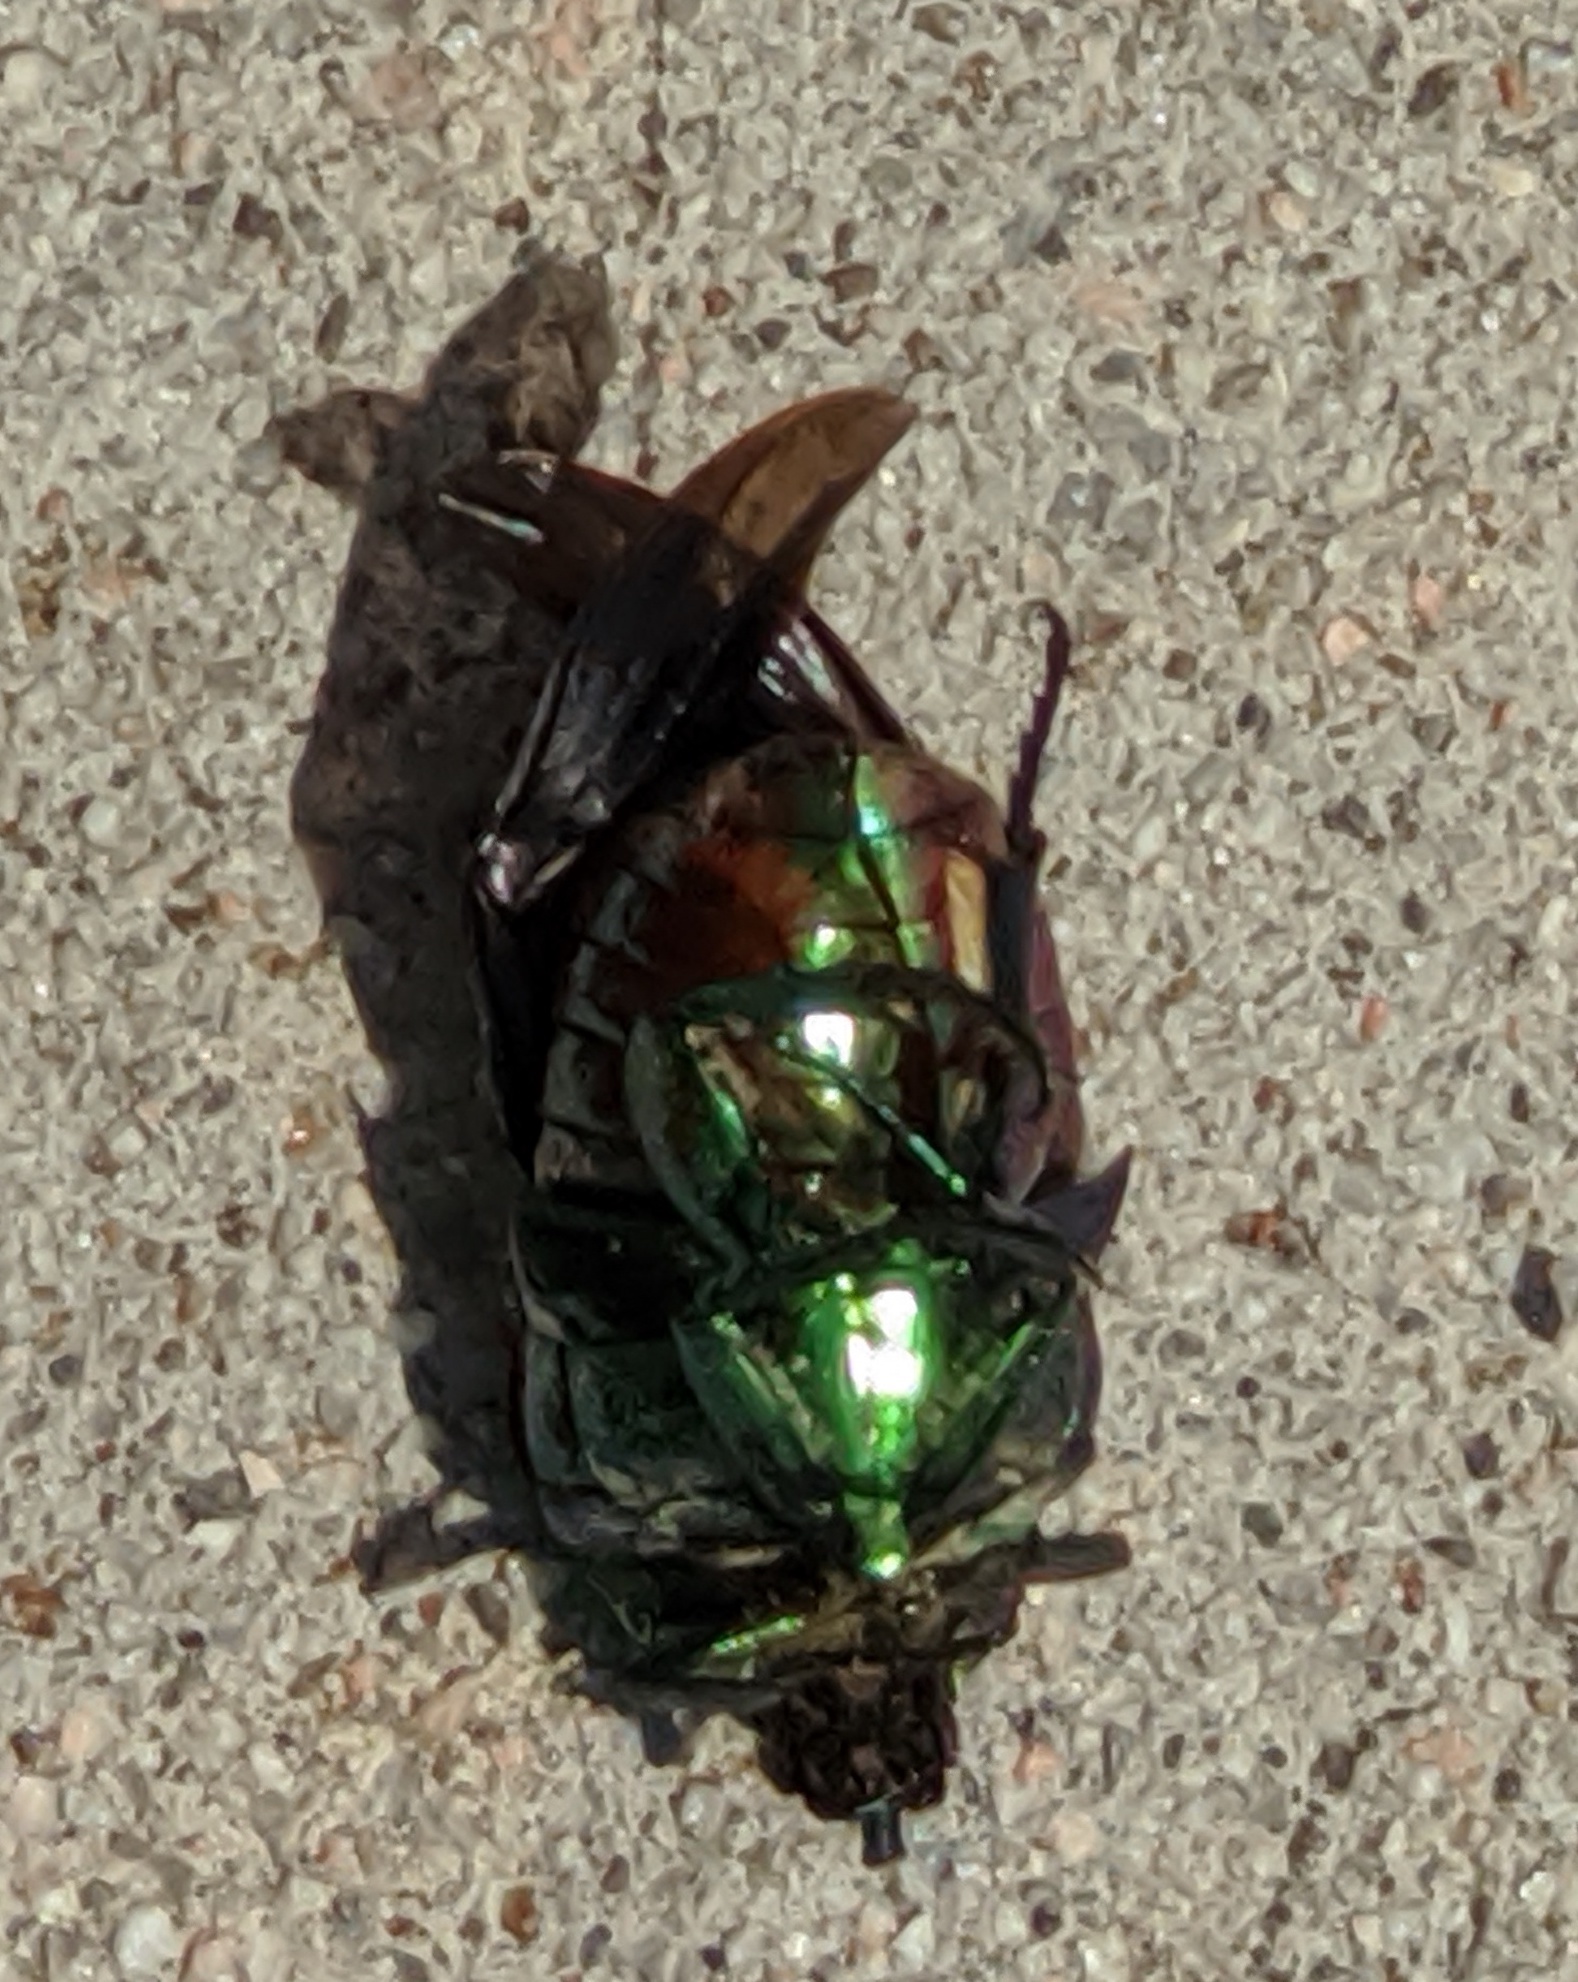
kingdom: Animalia
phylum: Arthropoda
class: Insecta
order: Coleoptera
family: Scarabaeidae
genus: Cotinis
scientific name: Cotinis mutabilis
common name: Figeater beetle
